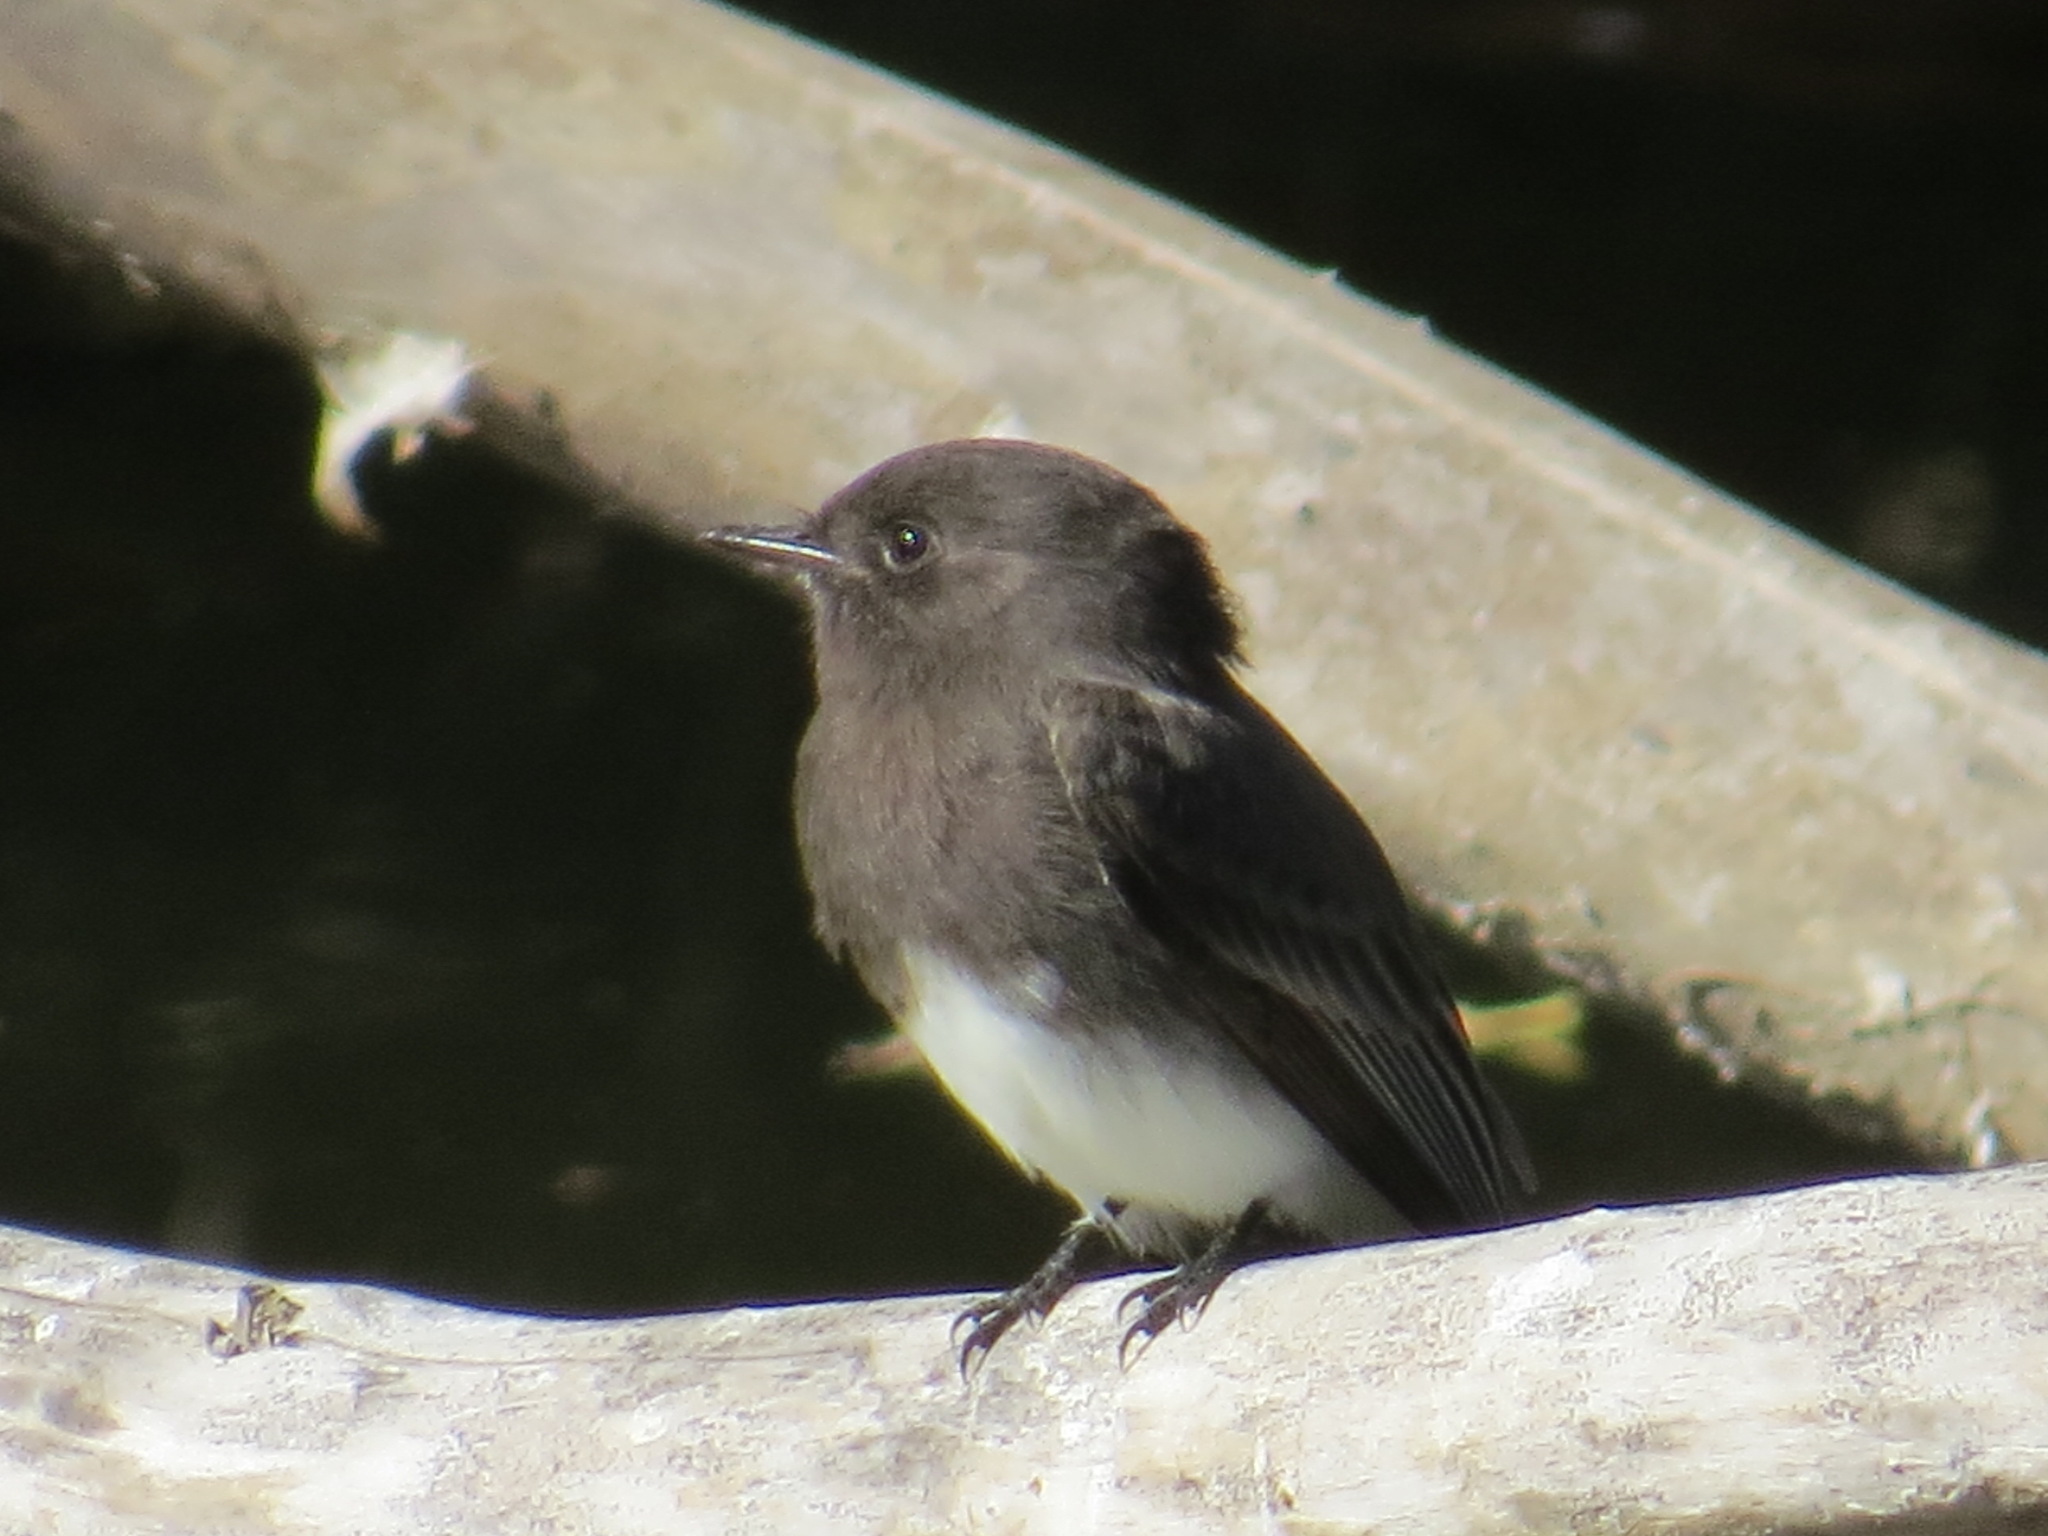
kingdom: Animalia
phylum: Chordata
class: Aves
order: Passeriformes
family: Tyrannidae
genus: Sayornis
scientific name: Sayornis nigricans
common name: Black phoebe
